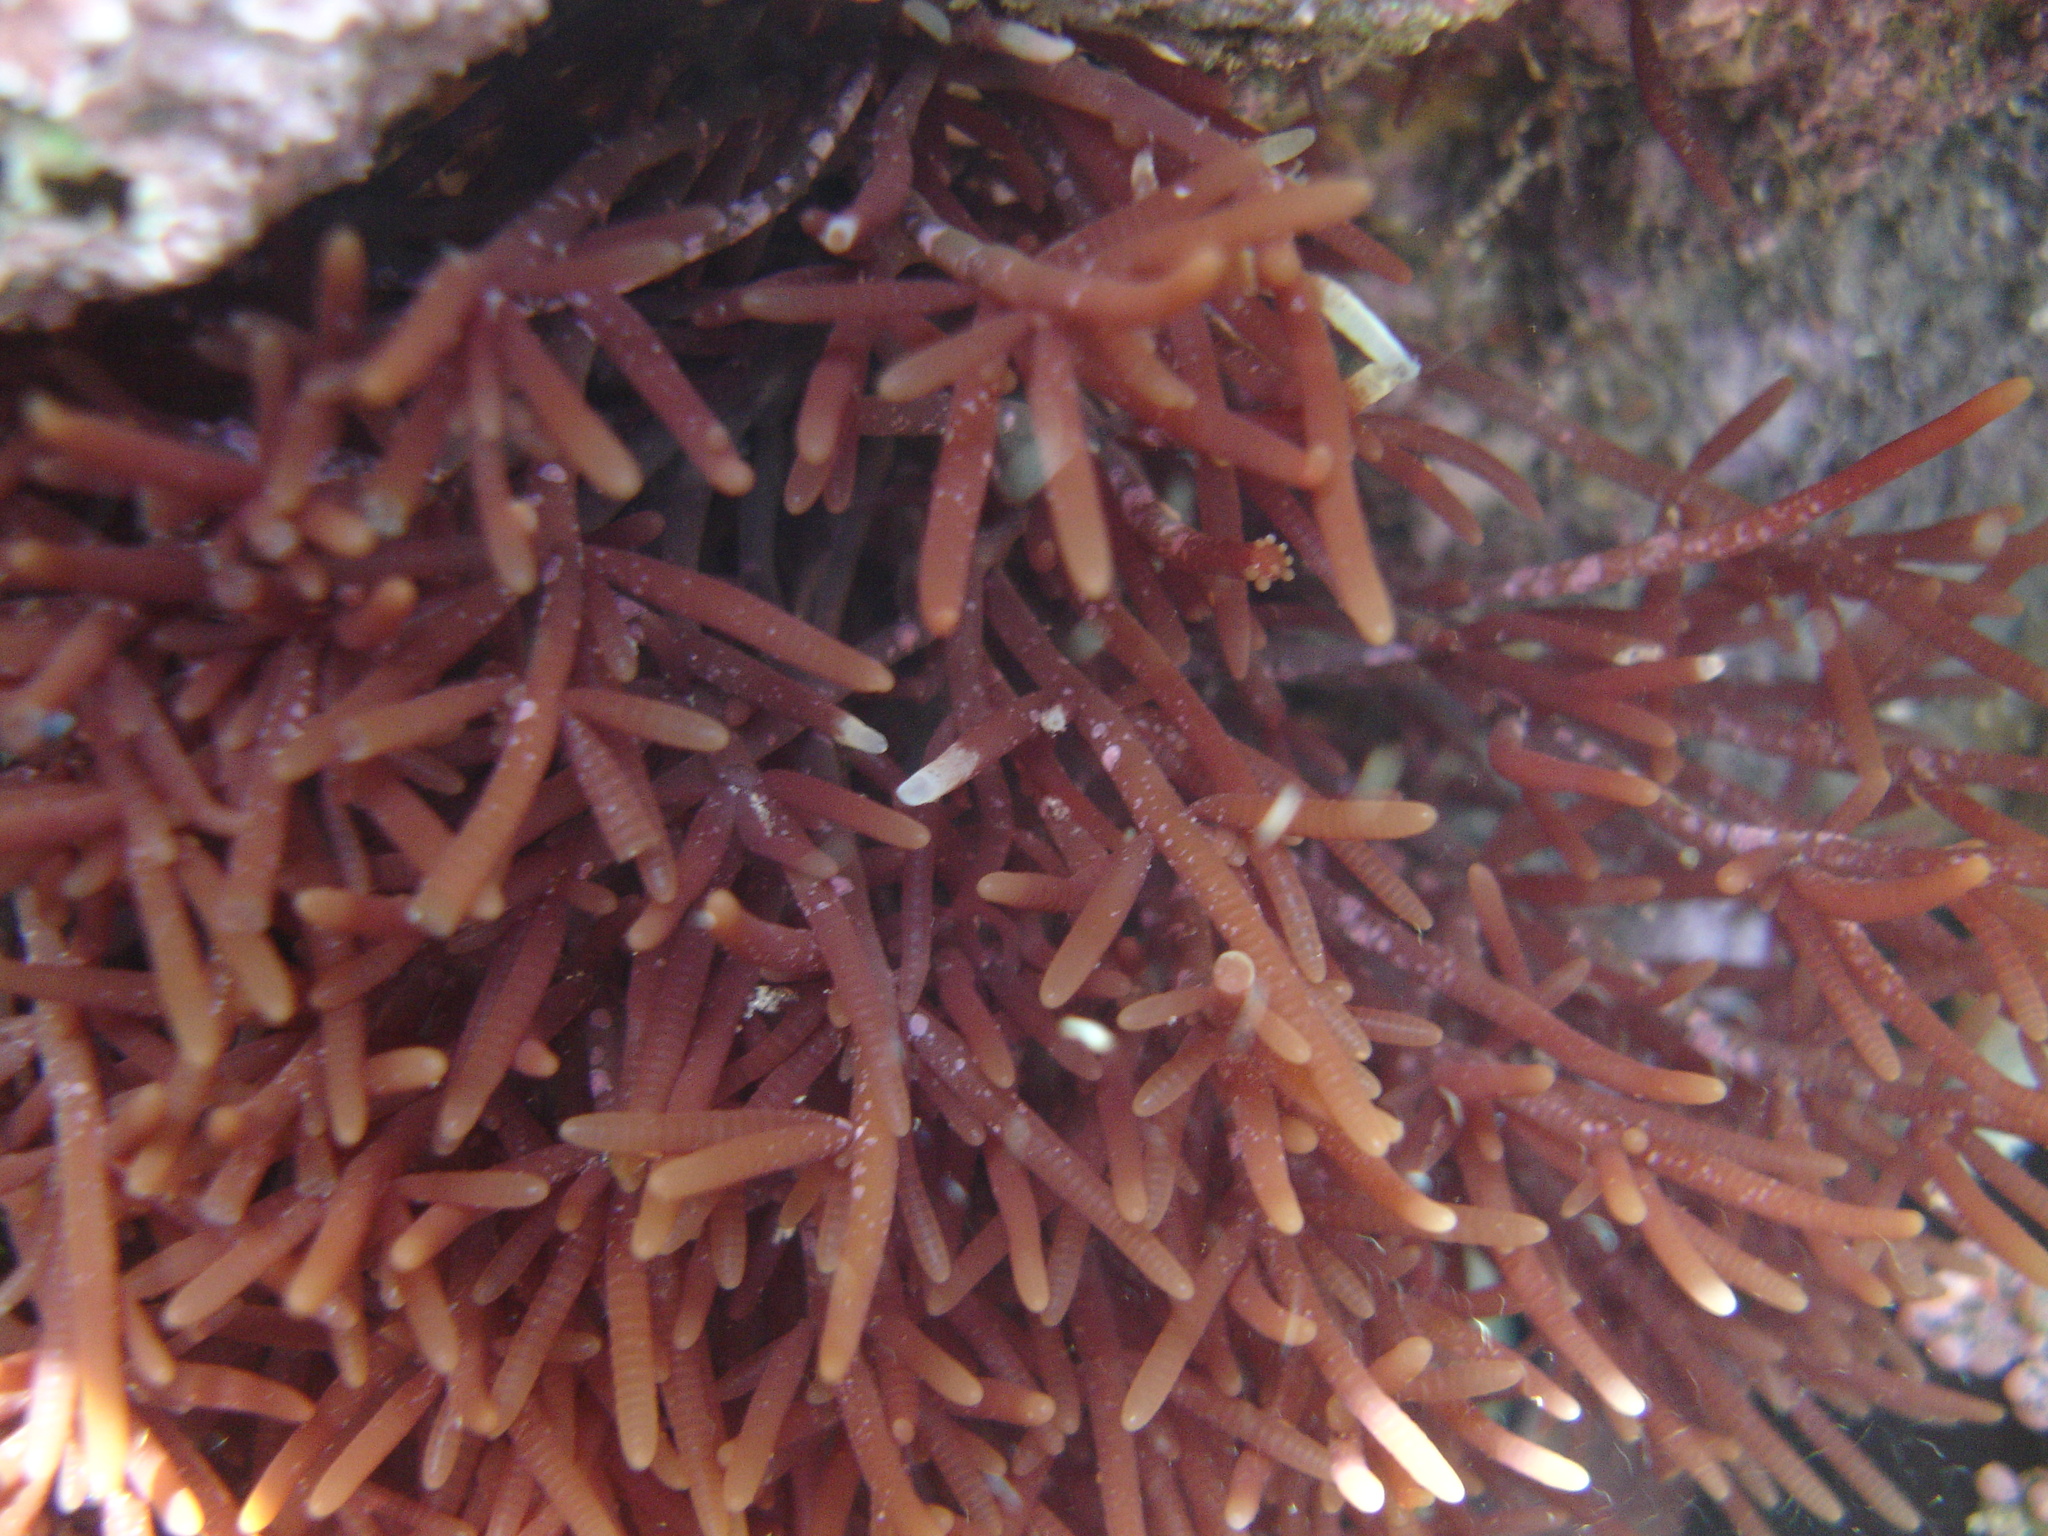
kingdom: Plantae
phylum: Rhodophyta
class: Florideophyceae
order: Rhodymeniales
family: Champiaceae
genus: Champia
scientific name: Champia novae-zelandiae
